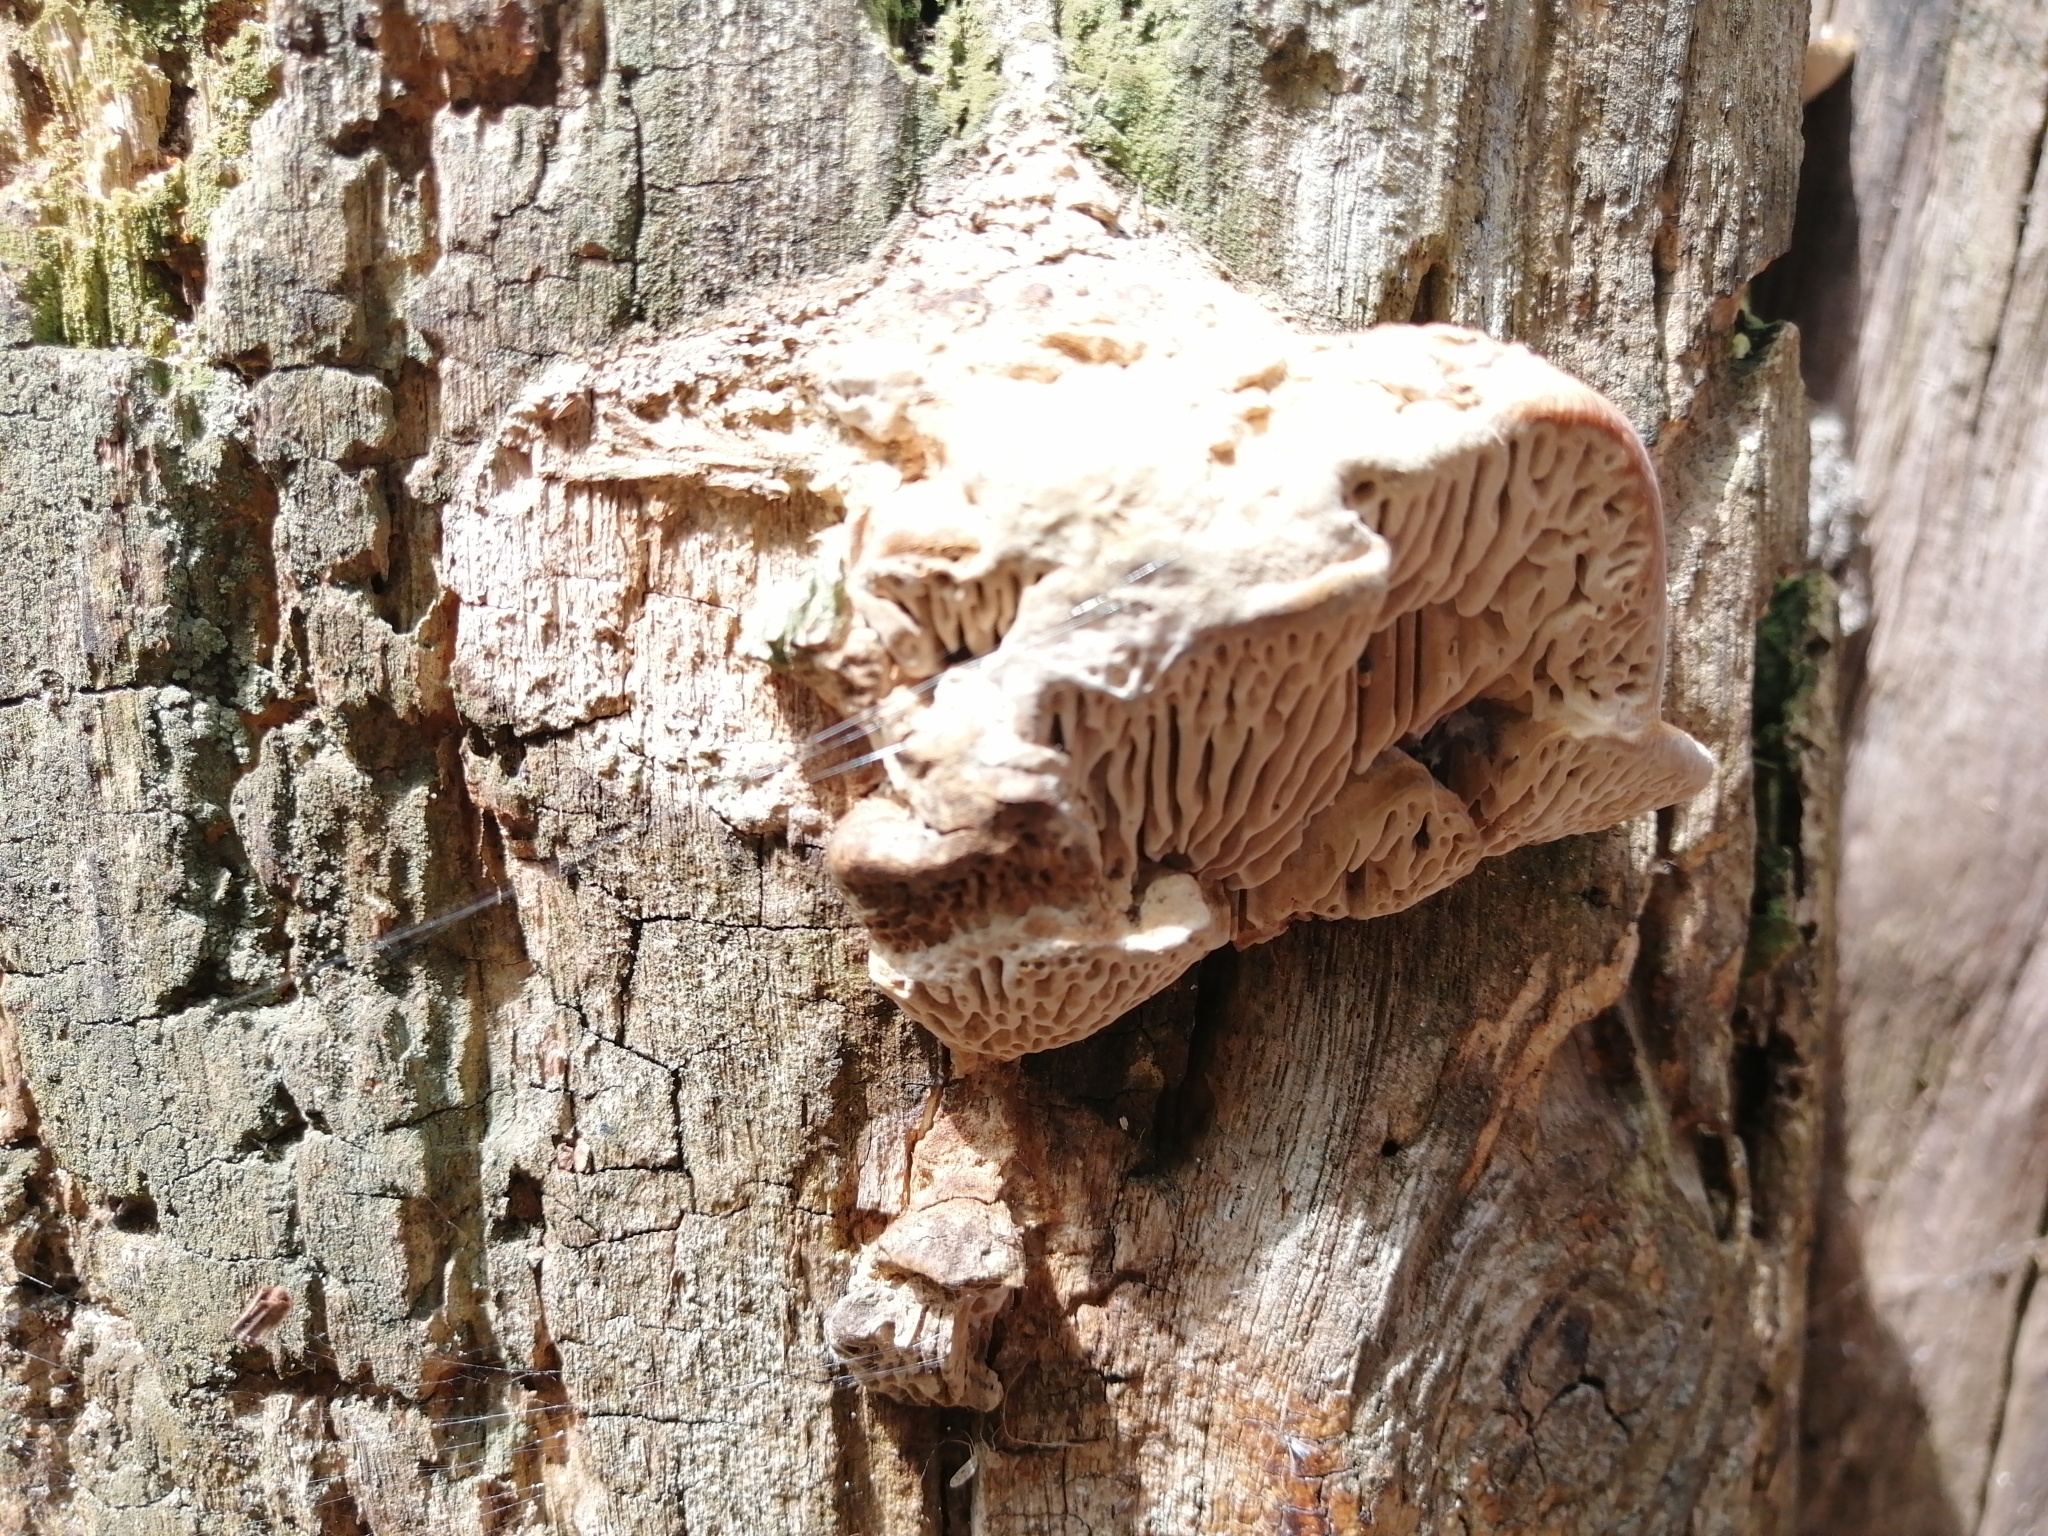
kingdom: Fungi
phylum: Basidiomycota
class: Agaricomycetes
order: Polyporales
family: Fomitopsidaceae
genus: Fomitopsis
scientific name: Fomitopsis
